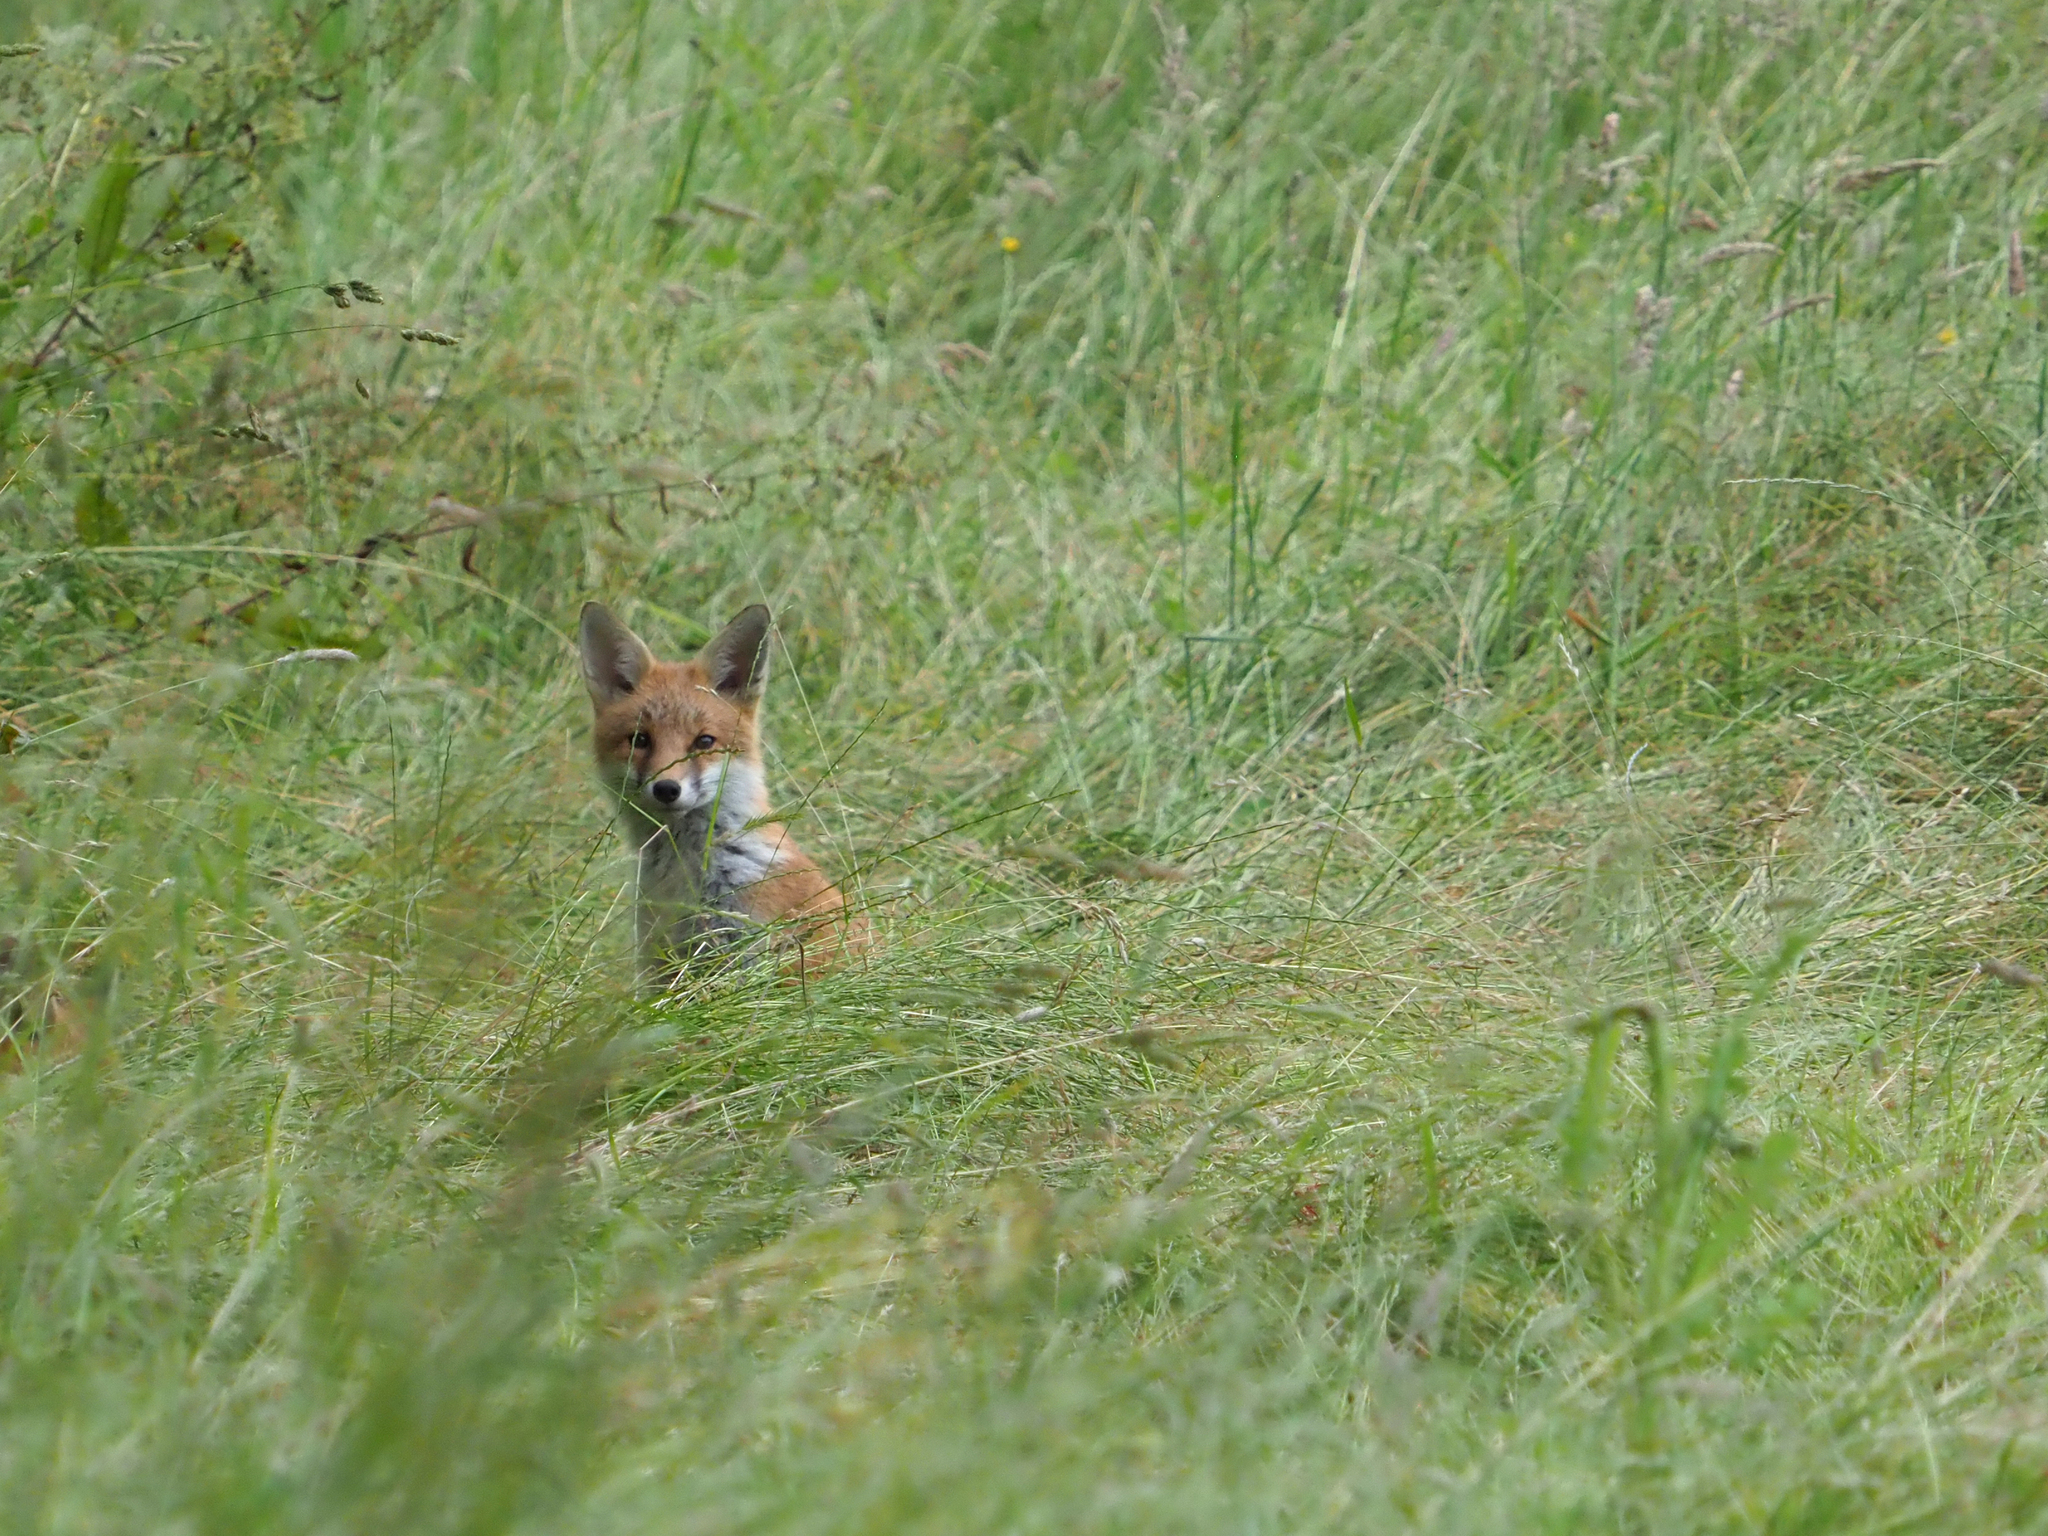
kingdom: Animalia
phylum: Chordata
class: Mammalia
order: Carnivora
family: Canidae
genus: Vulpes
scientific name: Vulpes vulpes
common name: Red fox
